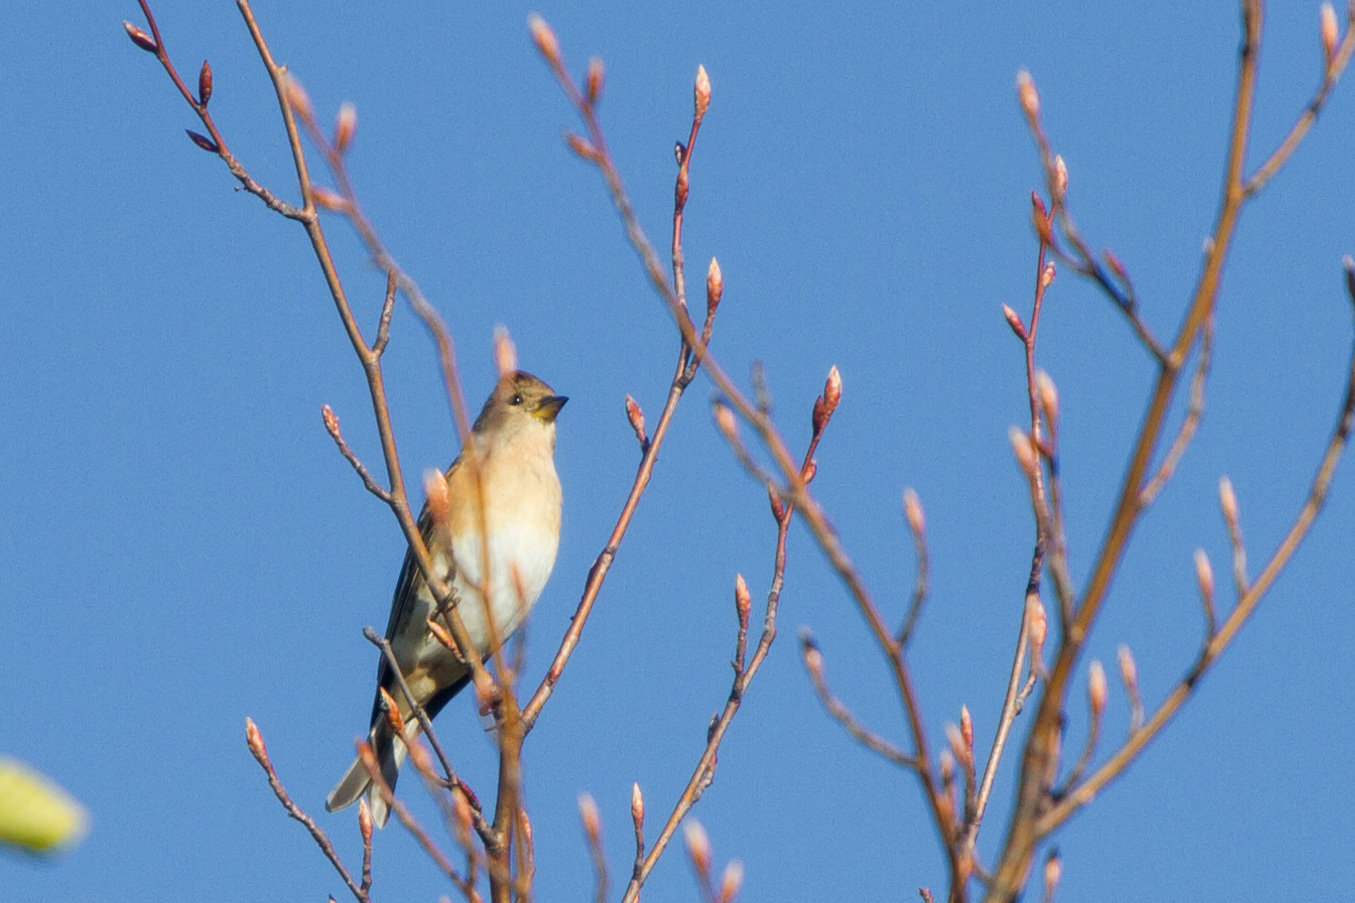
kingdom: Animalia
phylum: Chordata
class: Aves
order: Passeriformes
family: Fringillidae
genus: Fringilla
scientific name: Fringilla montifringilla
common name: Brambling
